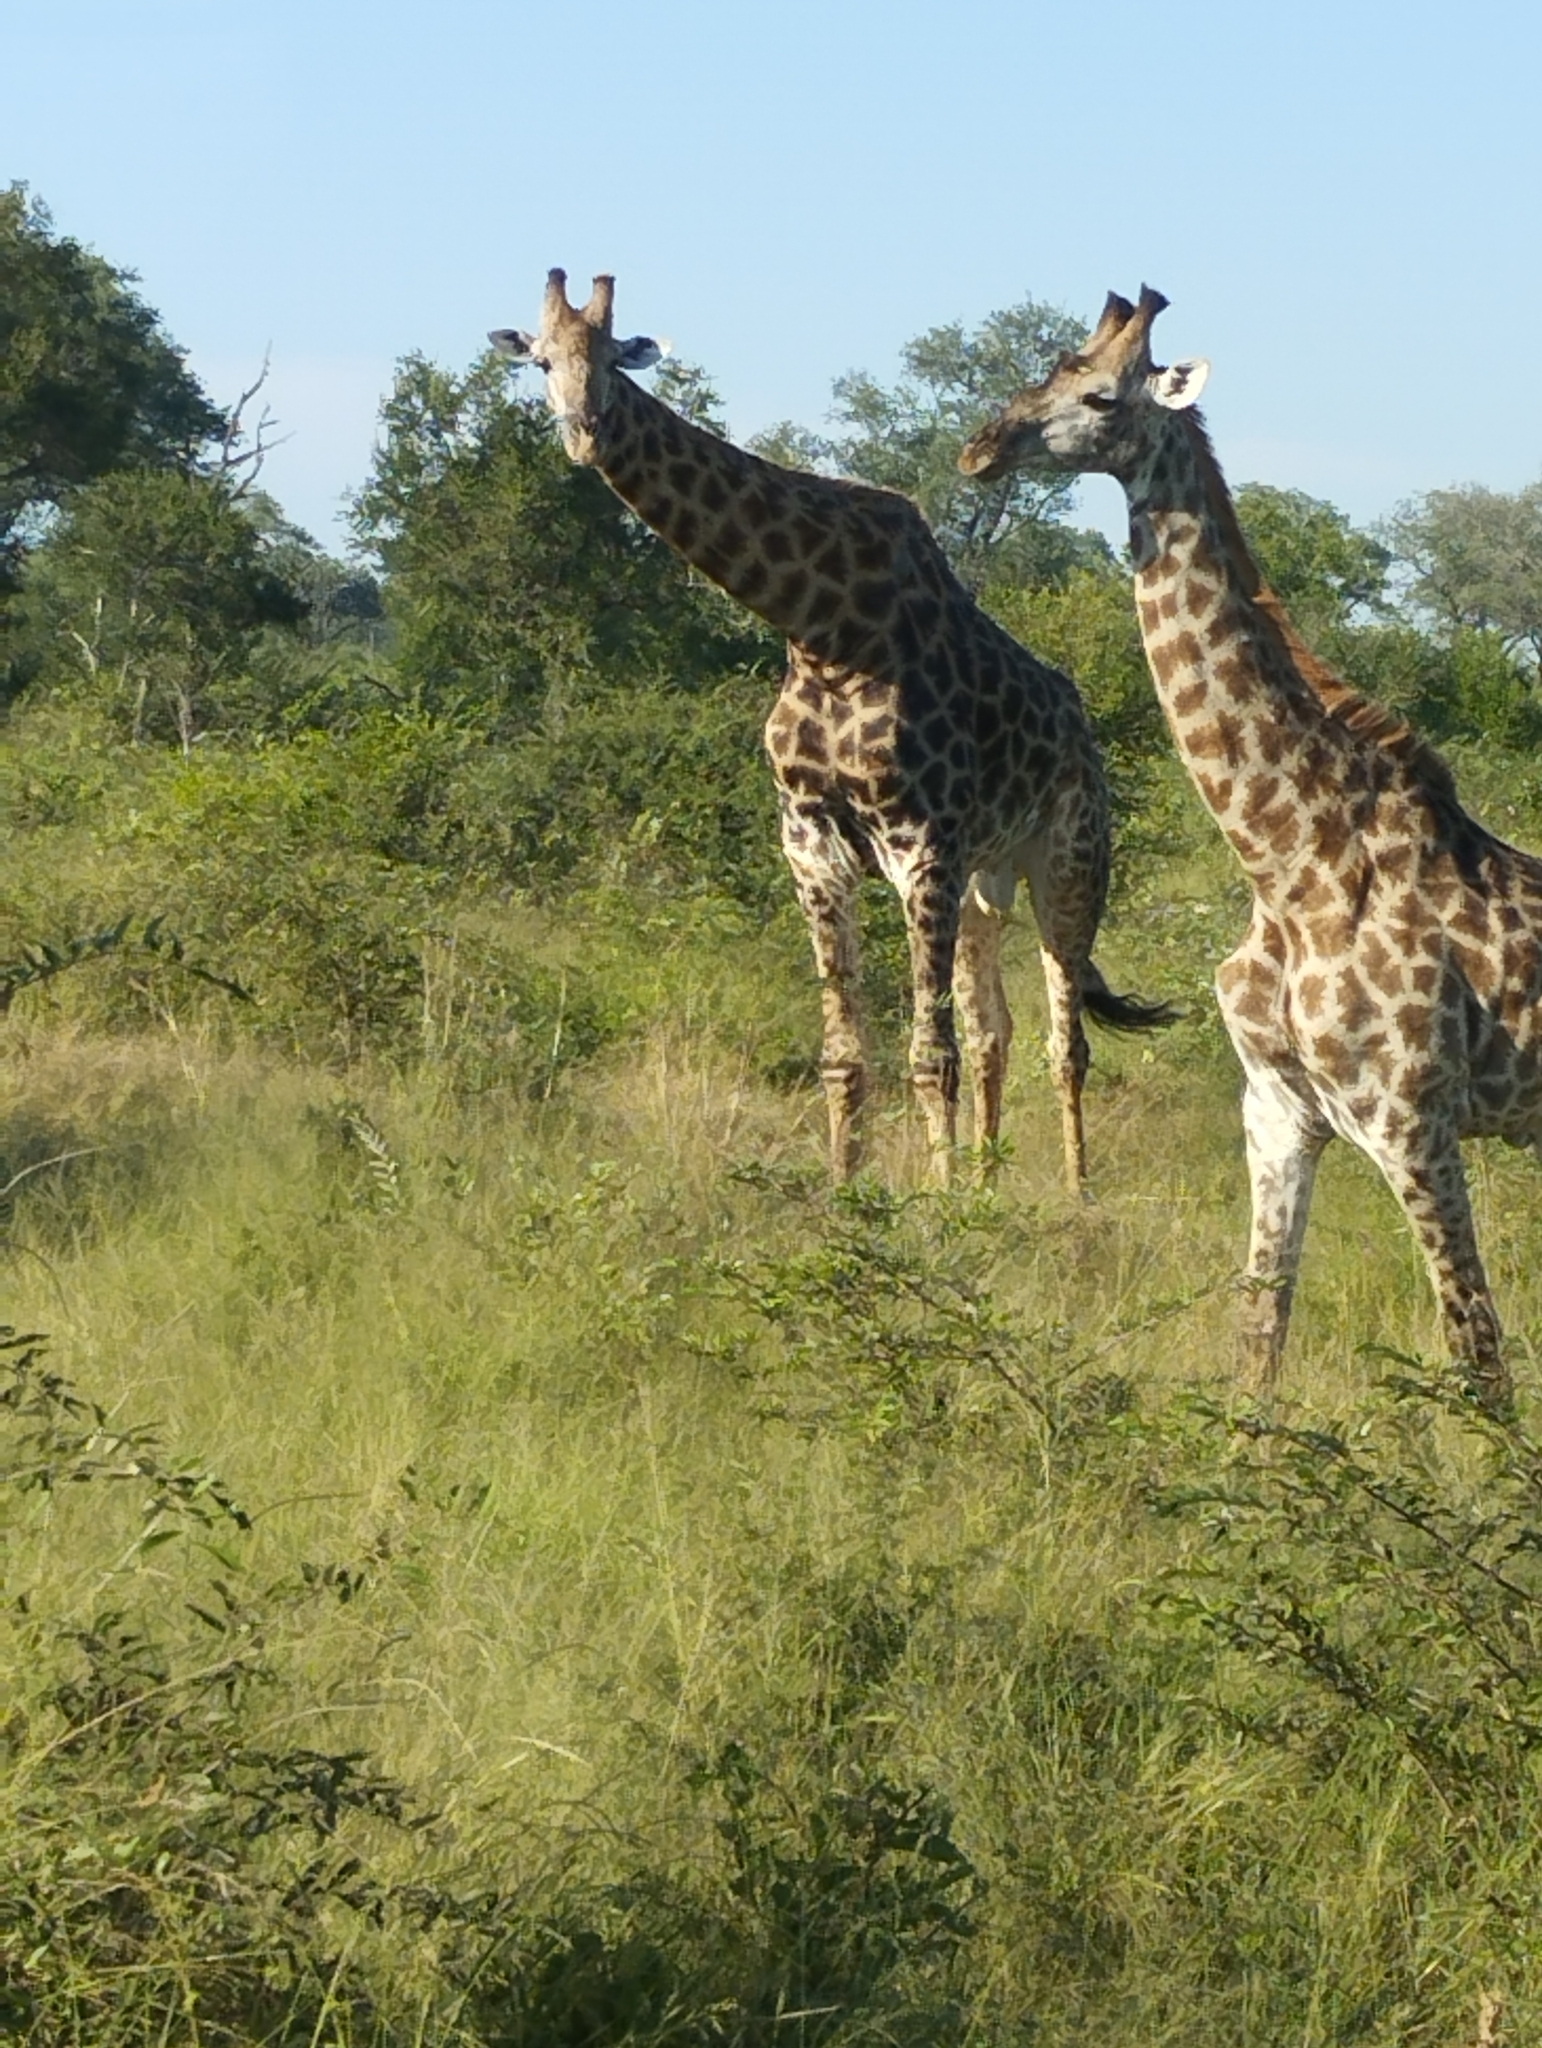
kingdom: Animalia
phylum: Chordata
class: Mammalia
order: Artiodactyla
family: Giraffidae
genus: Giraffa
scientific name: Giraffa giraffa
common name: Southern giraffe
